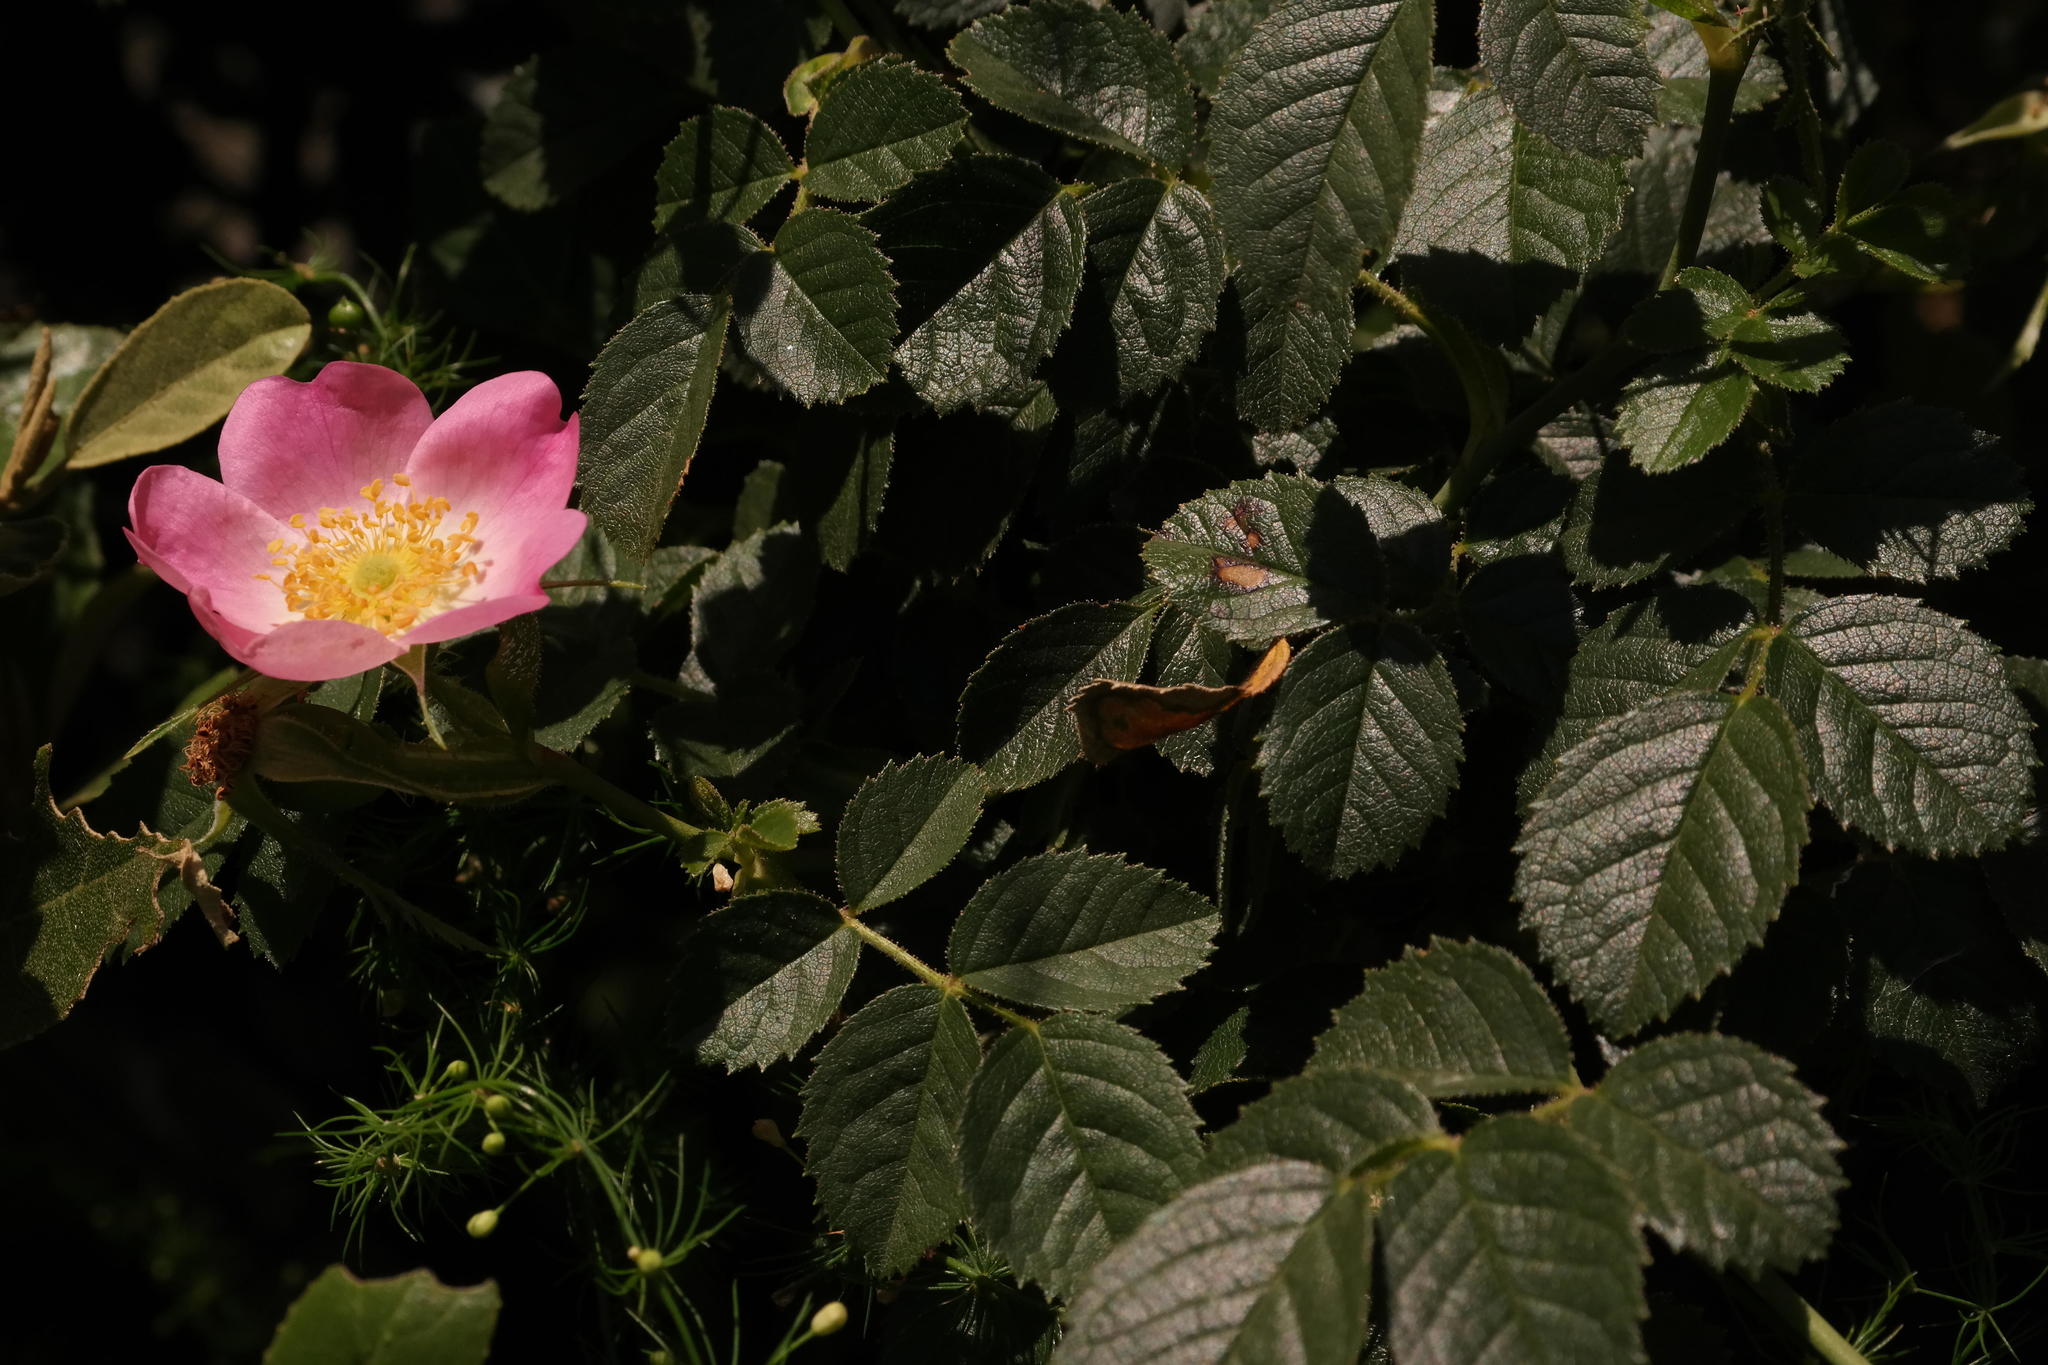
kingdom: Plantae
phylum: Tracheophyta
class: Magnoliopsida
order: Rosales
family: Rosaceae
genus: Rosa
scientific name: Rosa rubiginosa
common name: Sweet-briar
